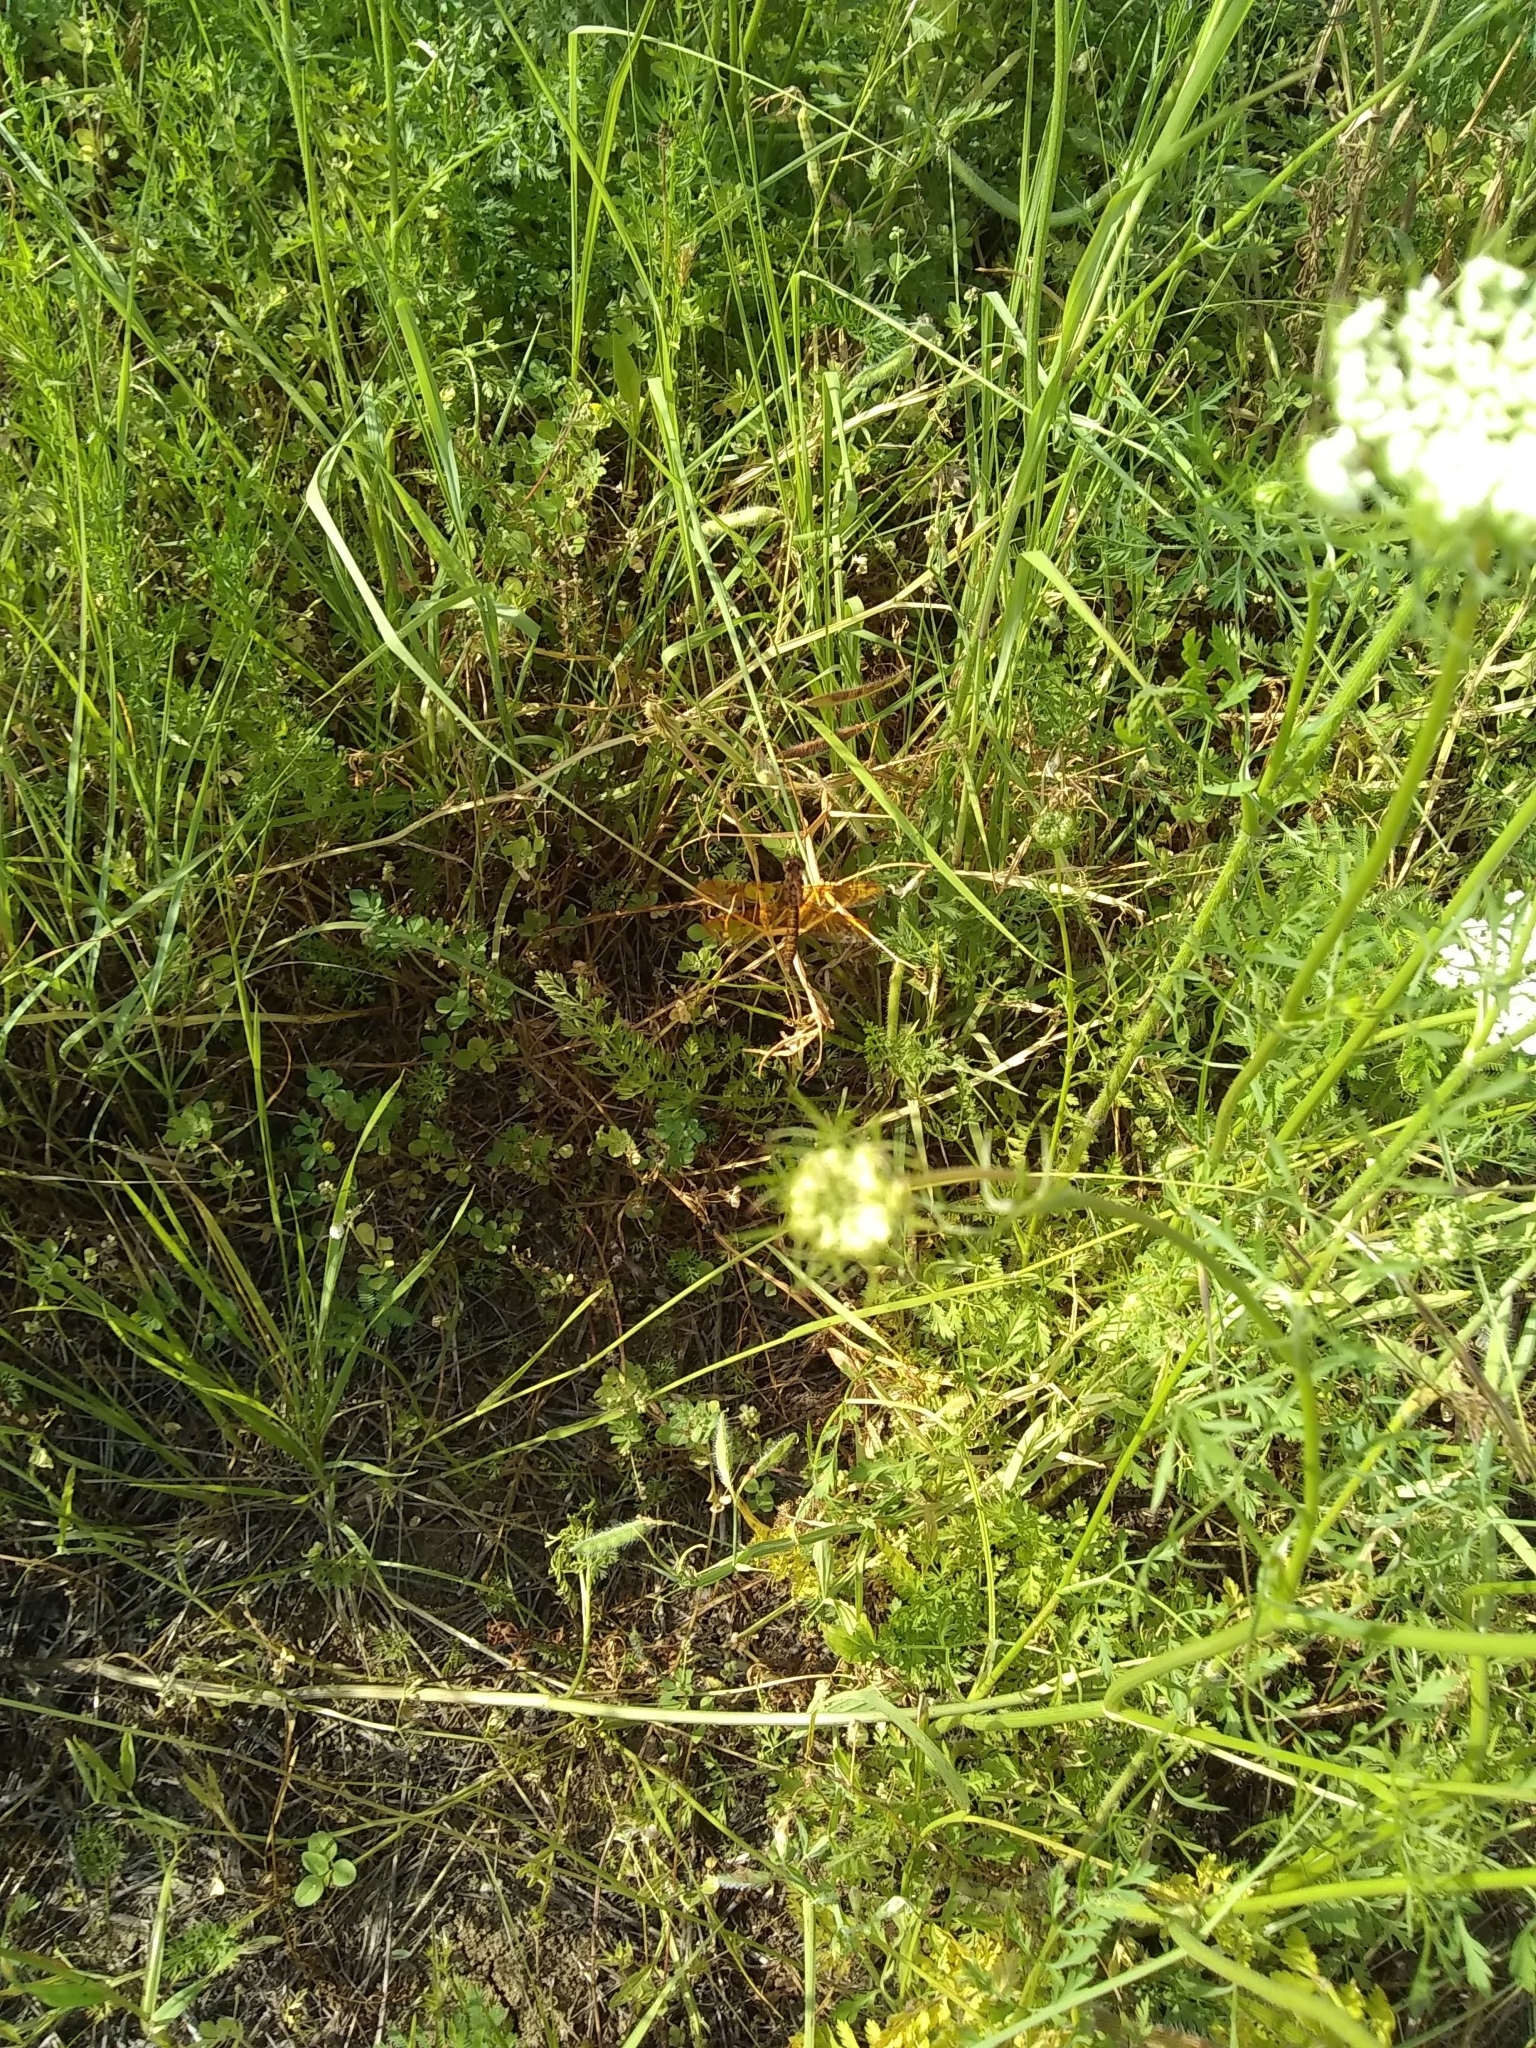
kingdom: Animalia
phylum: Arthropoda
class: Insecta
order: Odonata
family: Libellulidae
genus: Perithemis
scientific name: Perithemis tenera
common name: Eastern amberwing
